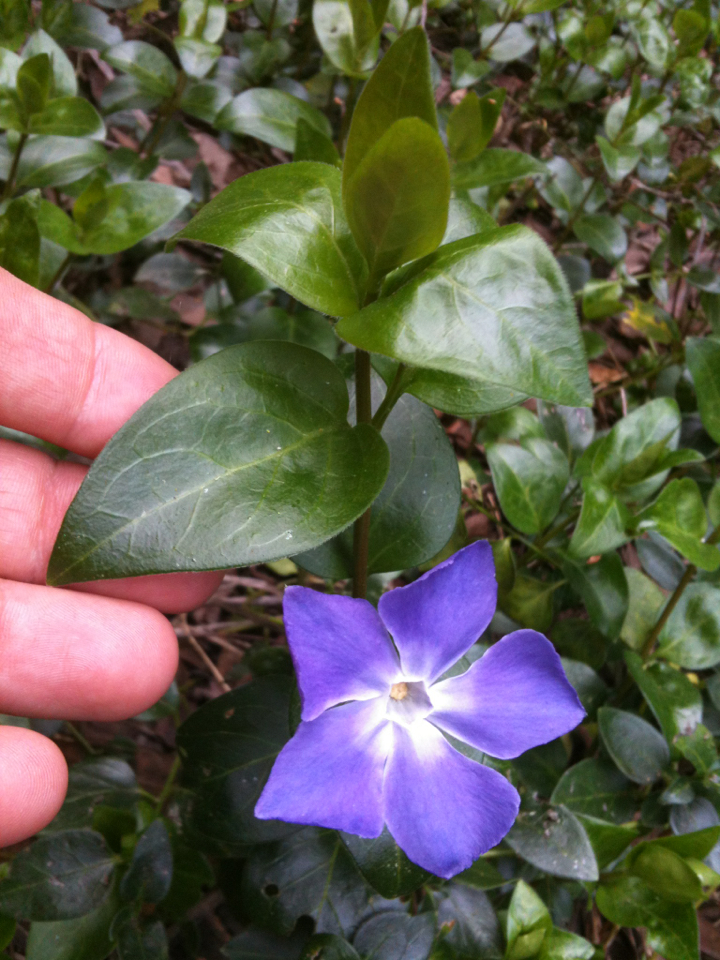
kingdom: Plantae
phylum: Tracheophyta
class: Magnoliopsida
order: Gentianales
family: Apocynaceae
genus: Vinca
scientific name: Vinca major
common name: Greater periwinkle
